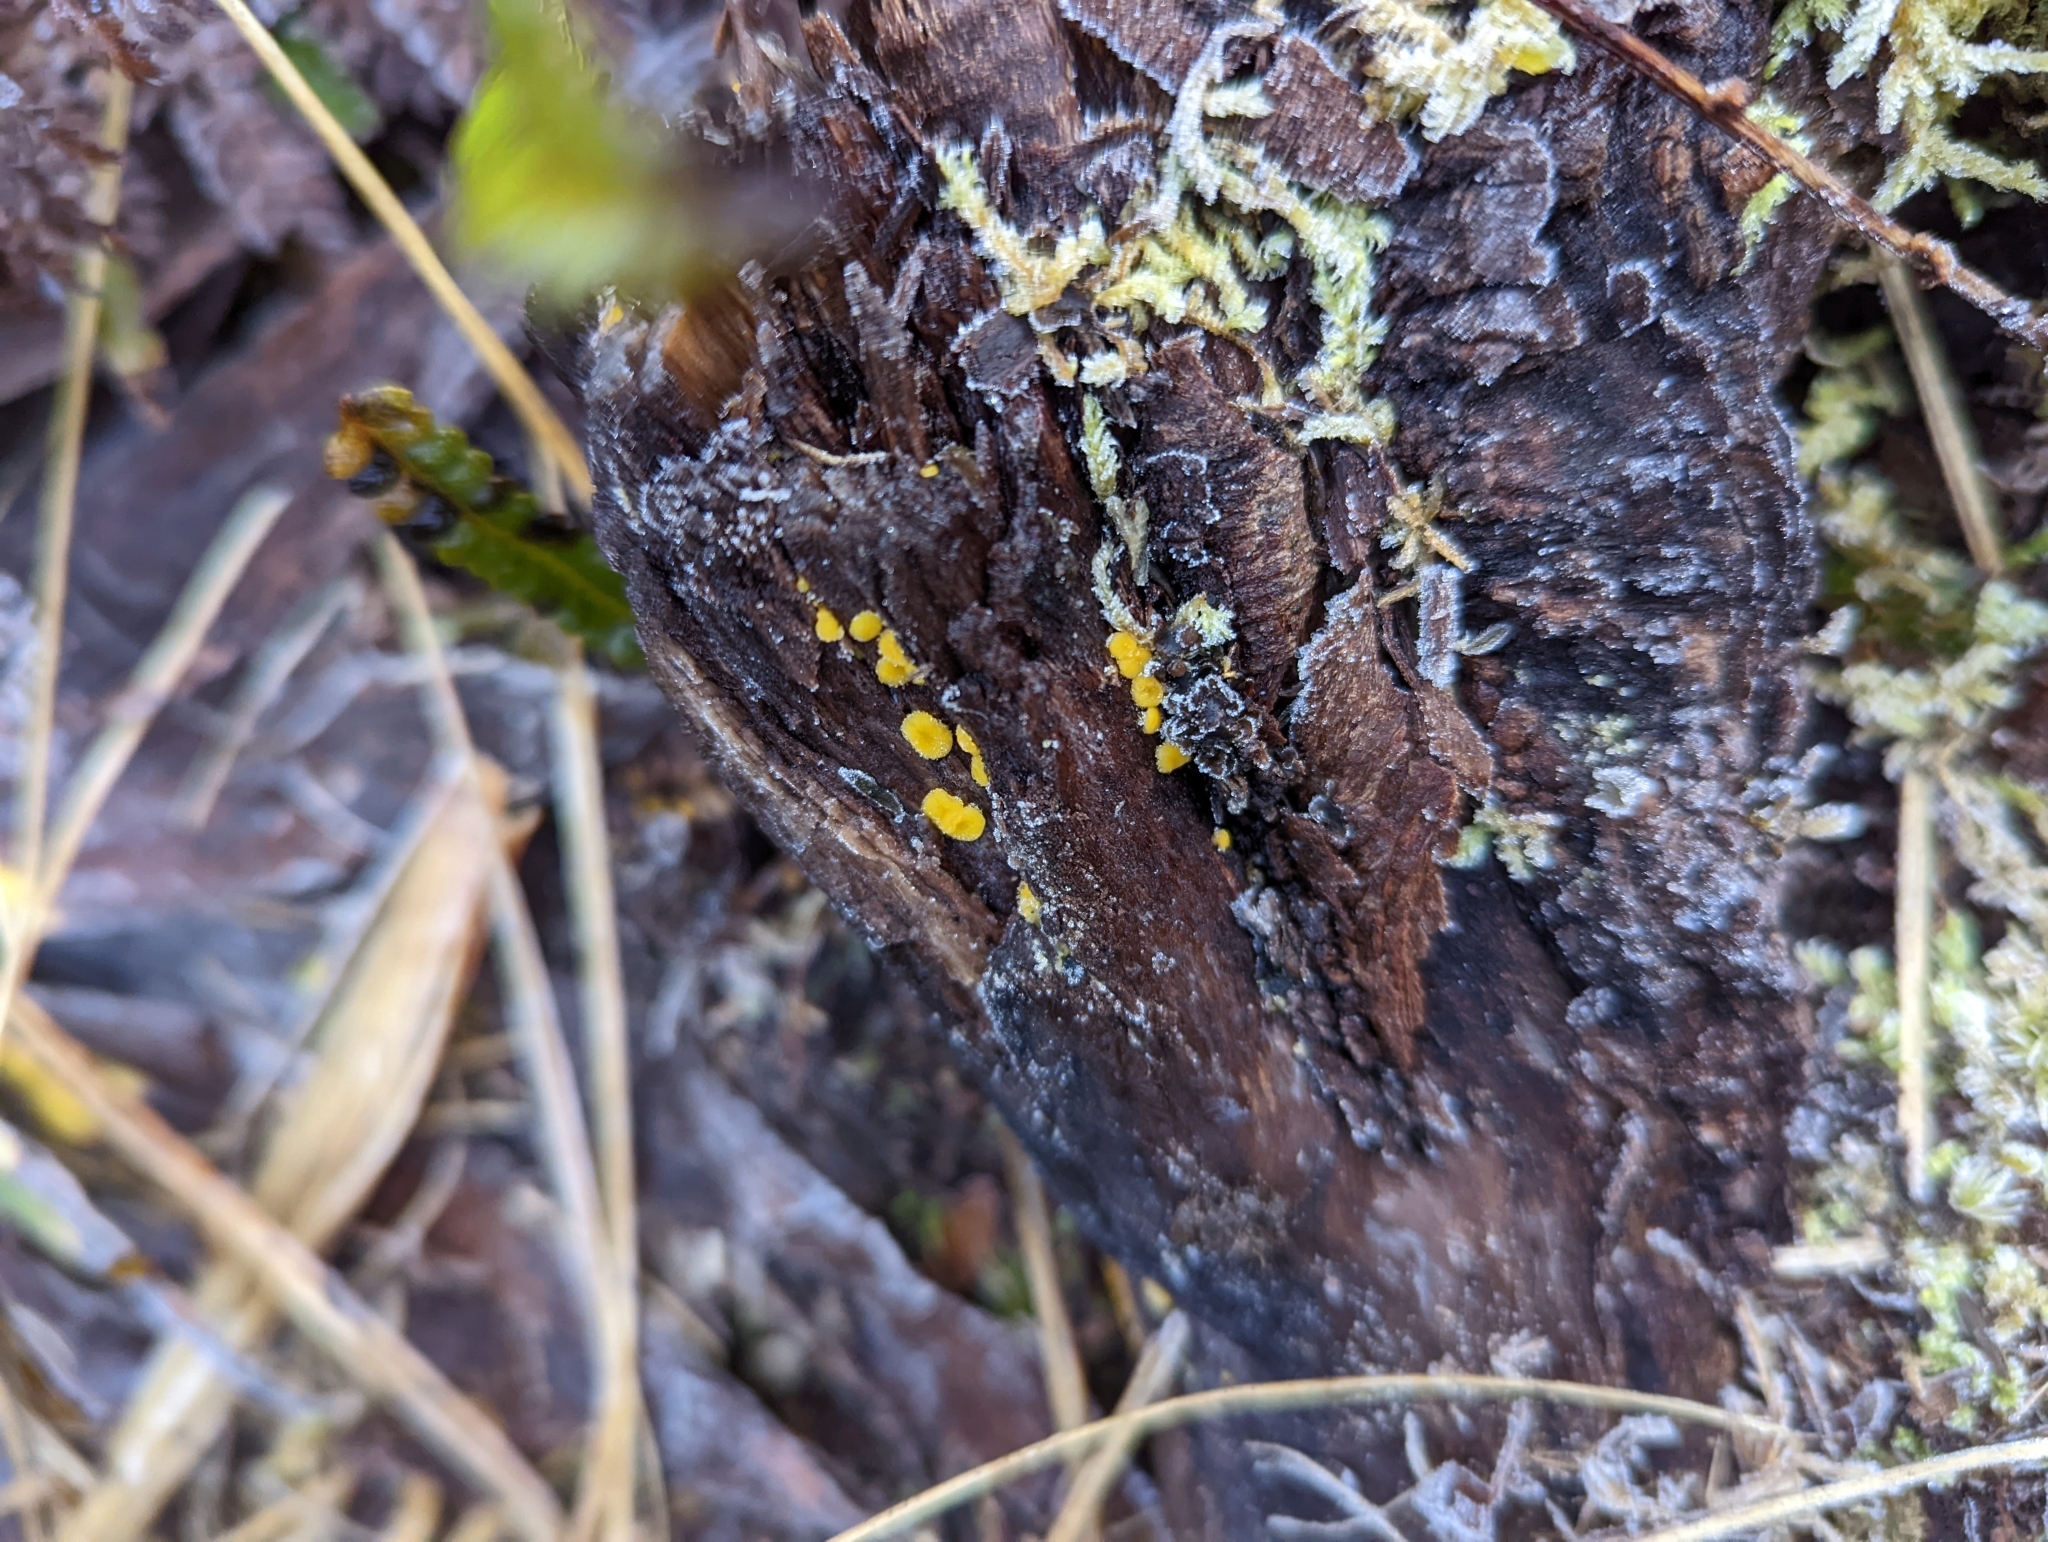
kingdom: Fungi
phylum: Ascomycota
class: Leotiomycetes
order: Helotiales
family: Pezizellaceae
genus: Calycina
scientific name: Calycina citrina
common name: Yellow fairy cups
